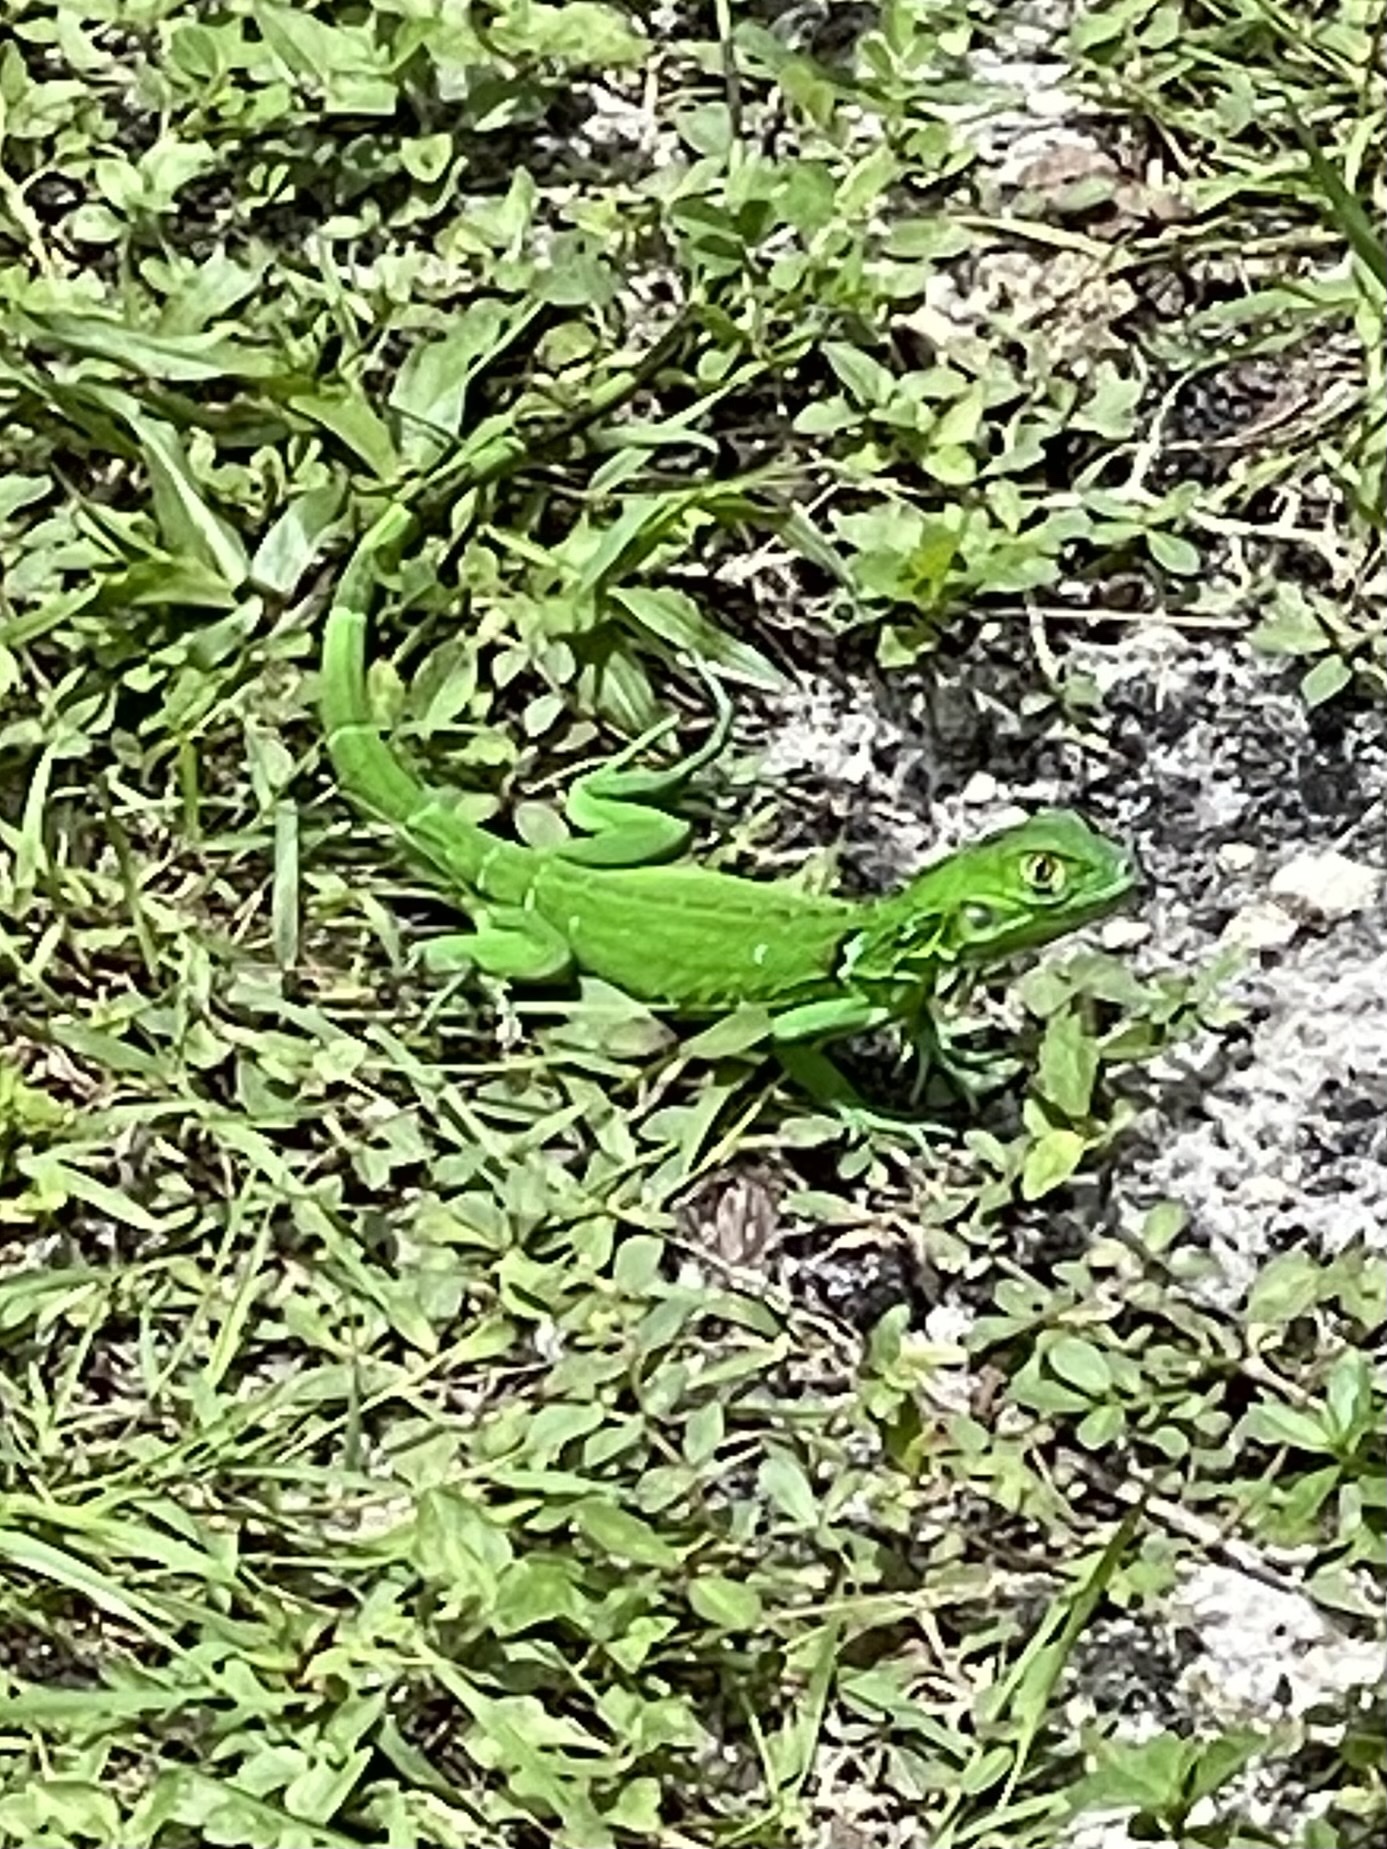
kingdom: Animalia
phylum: Chordata
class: Squamata
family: Iguanidae
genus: Iguana
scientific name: Iguana iguana
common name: Green iguana
